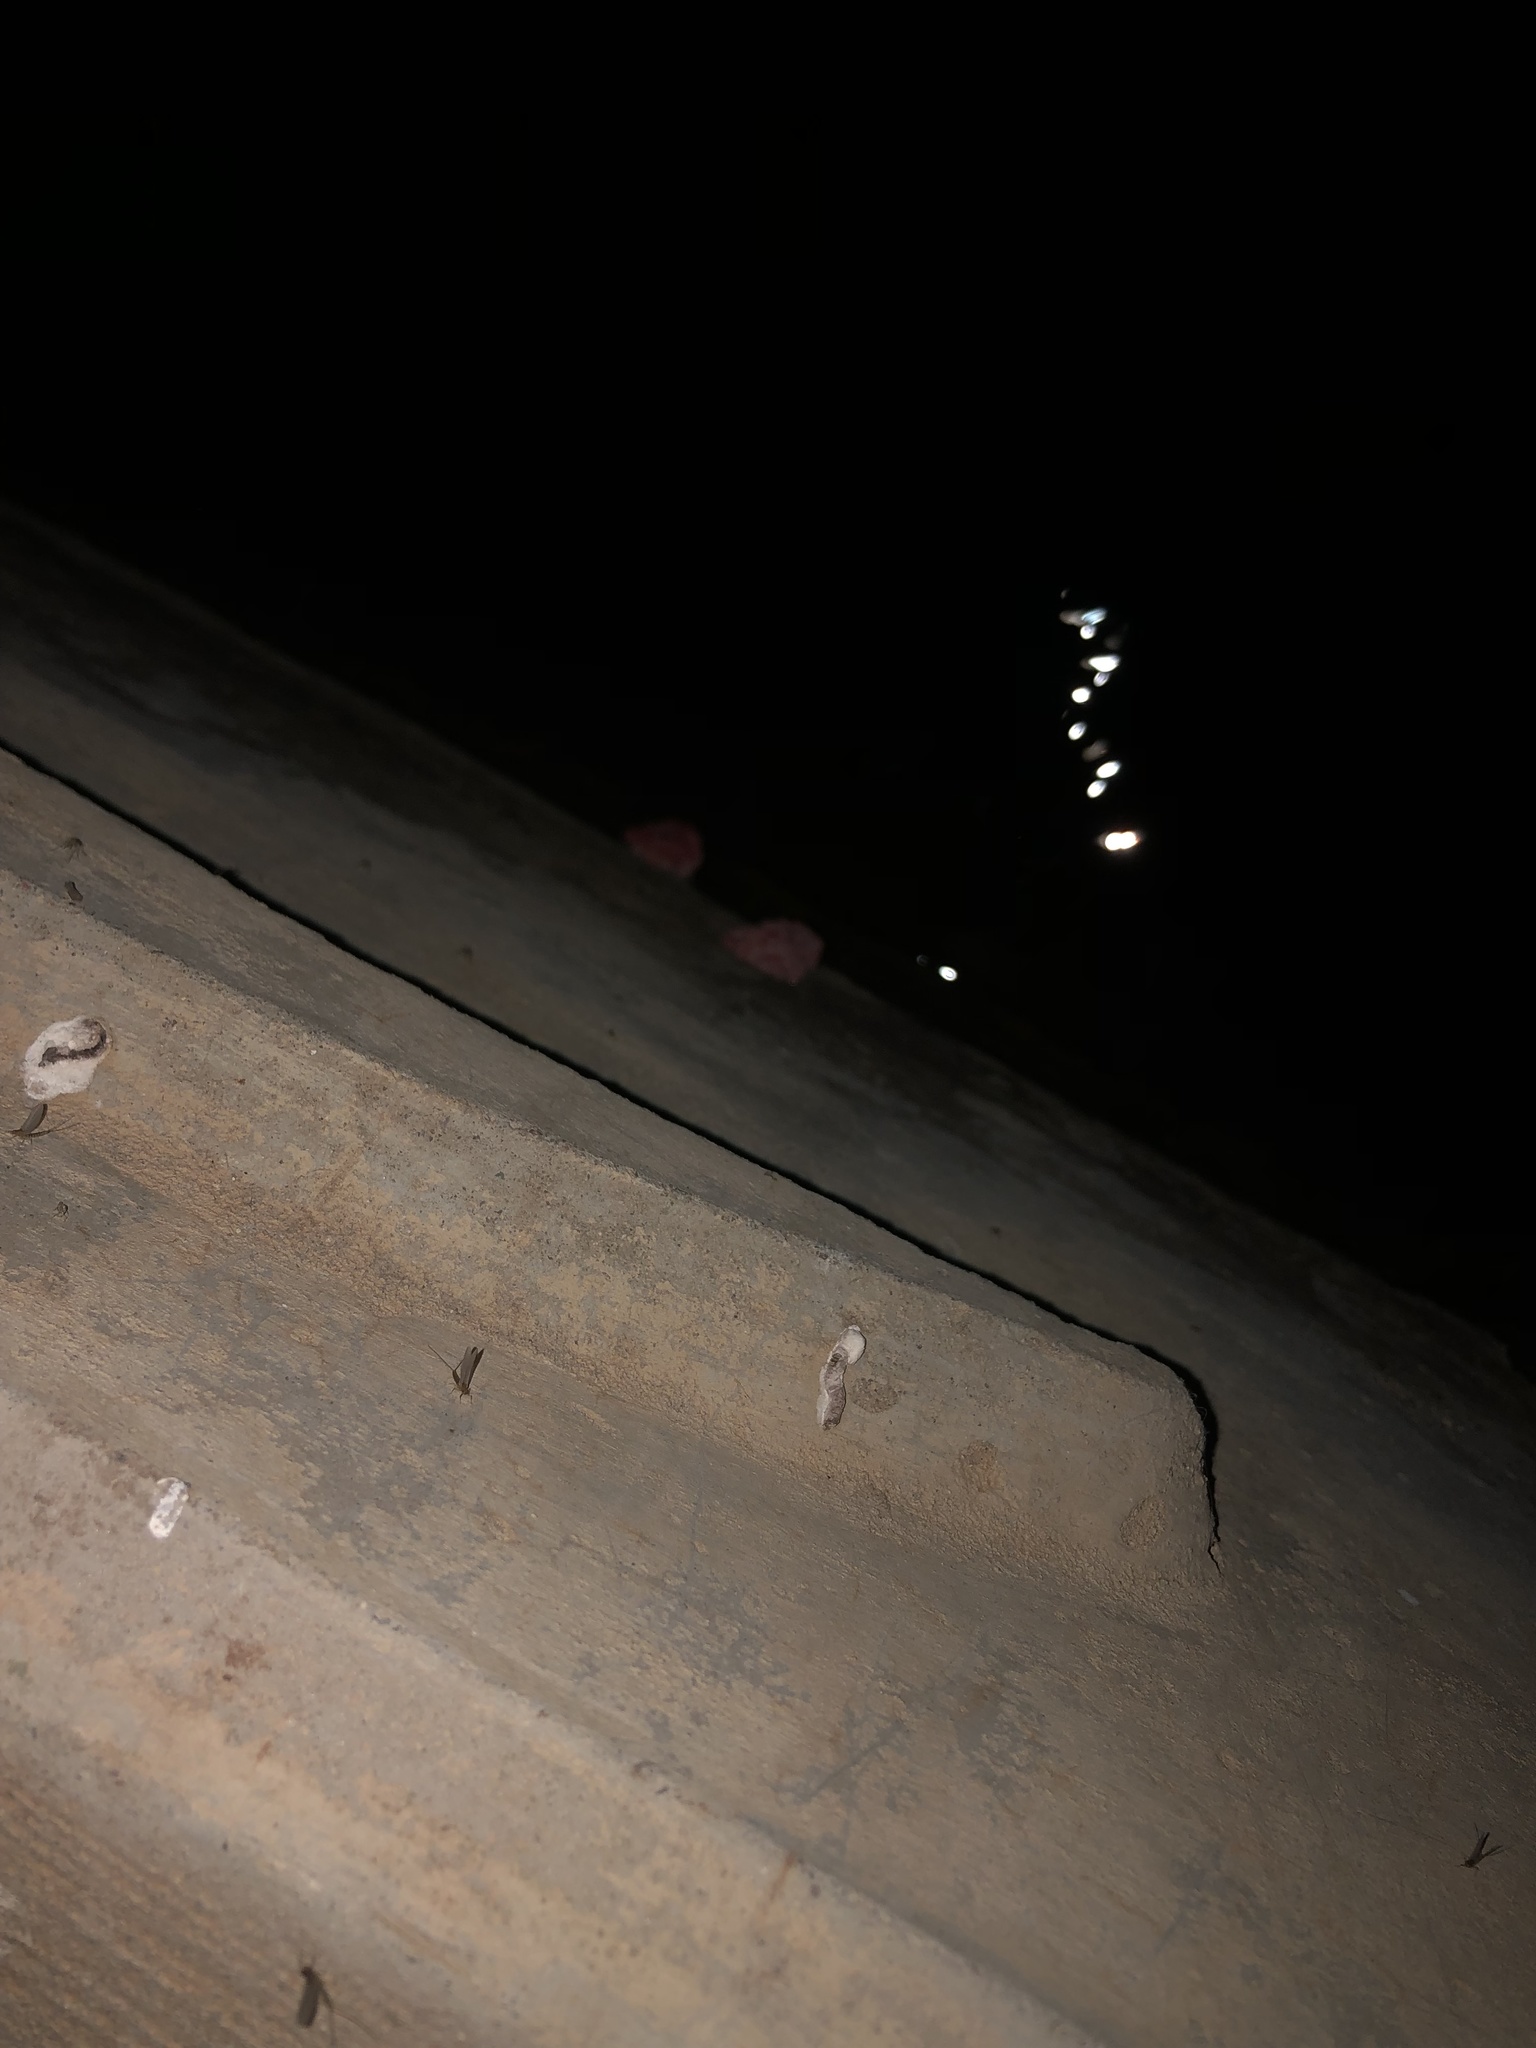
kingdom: Animalia
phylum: Mollusca
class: Gastropoda
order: Architaenioglossa
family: Ampullariidae
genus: Pomacea
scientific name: Pomacea canaliculata
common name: Channeled applesnail
